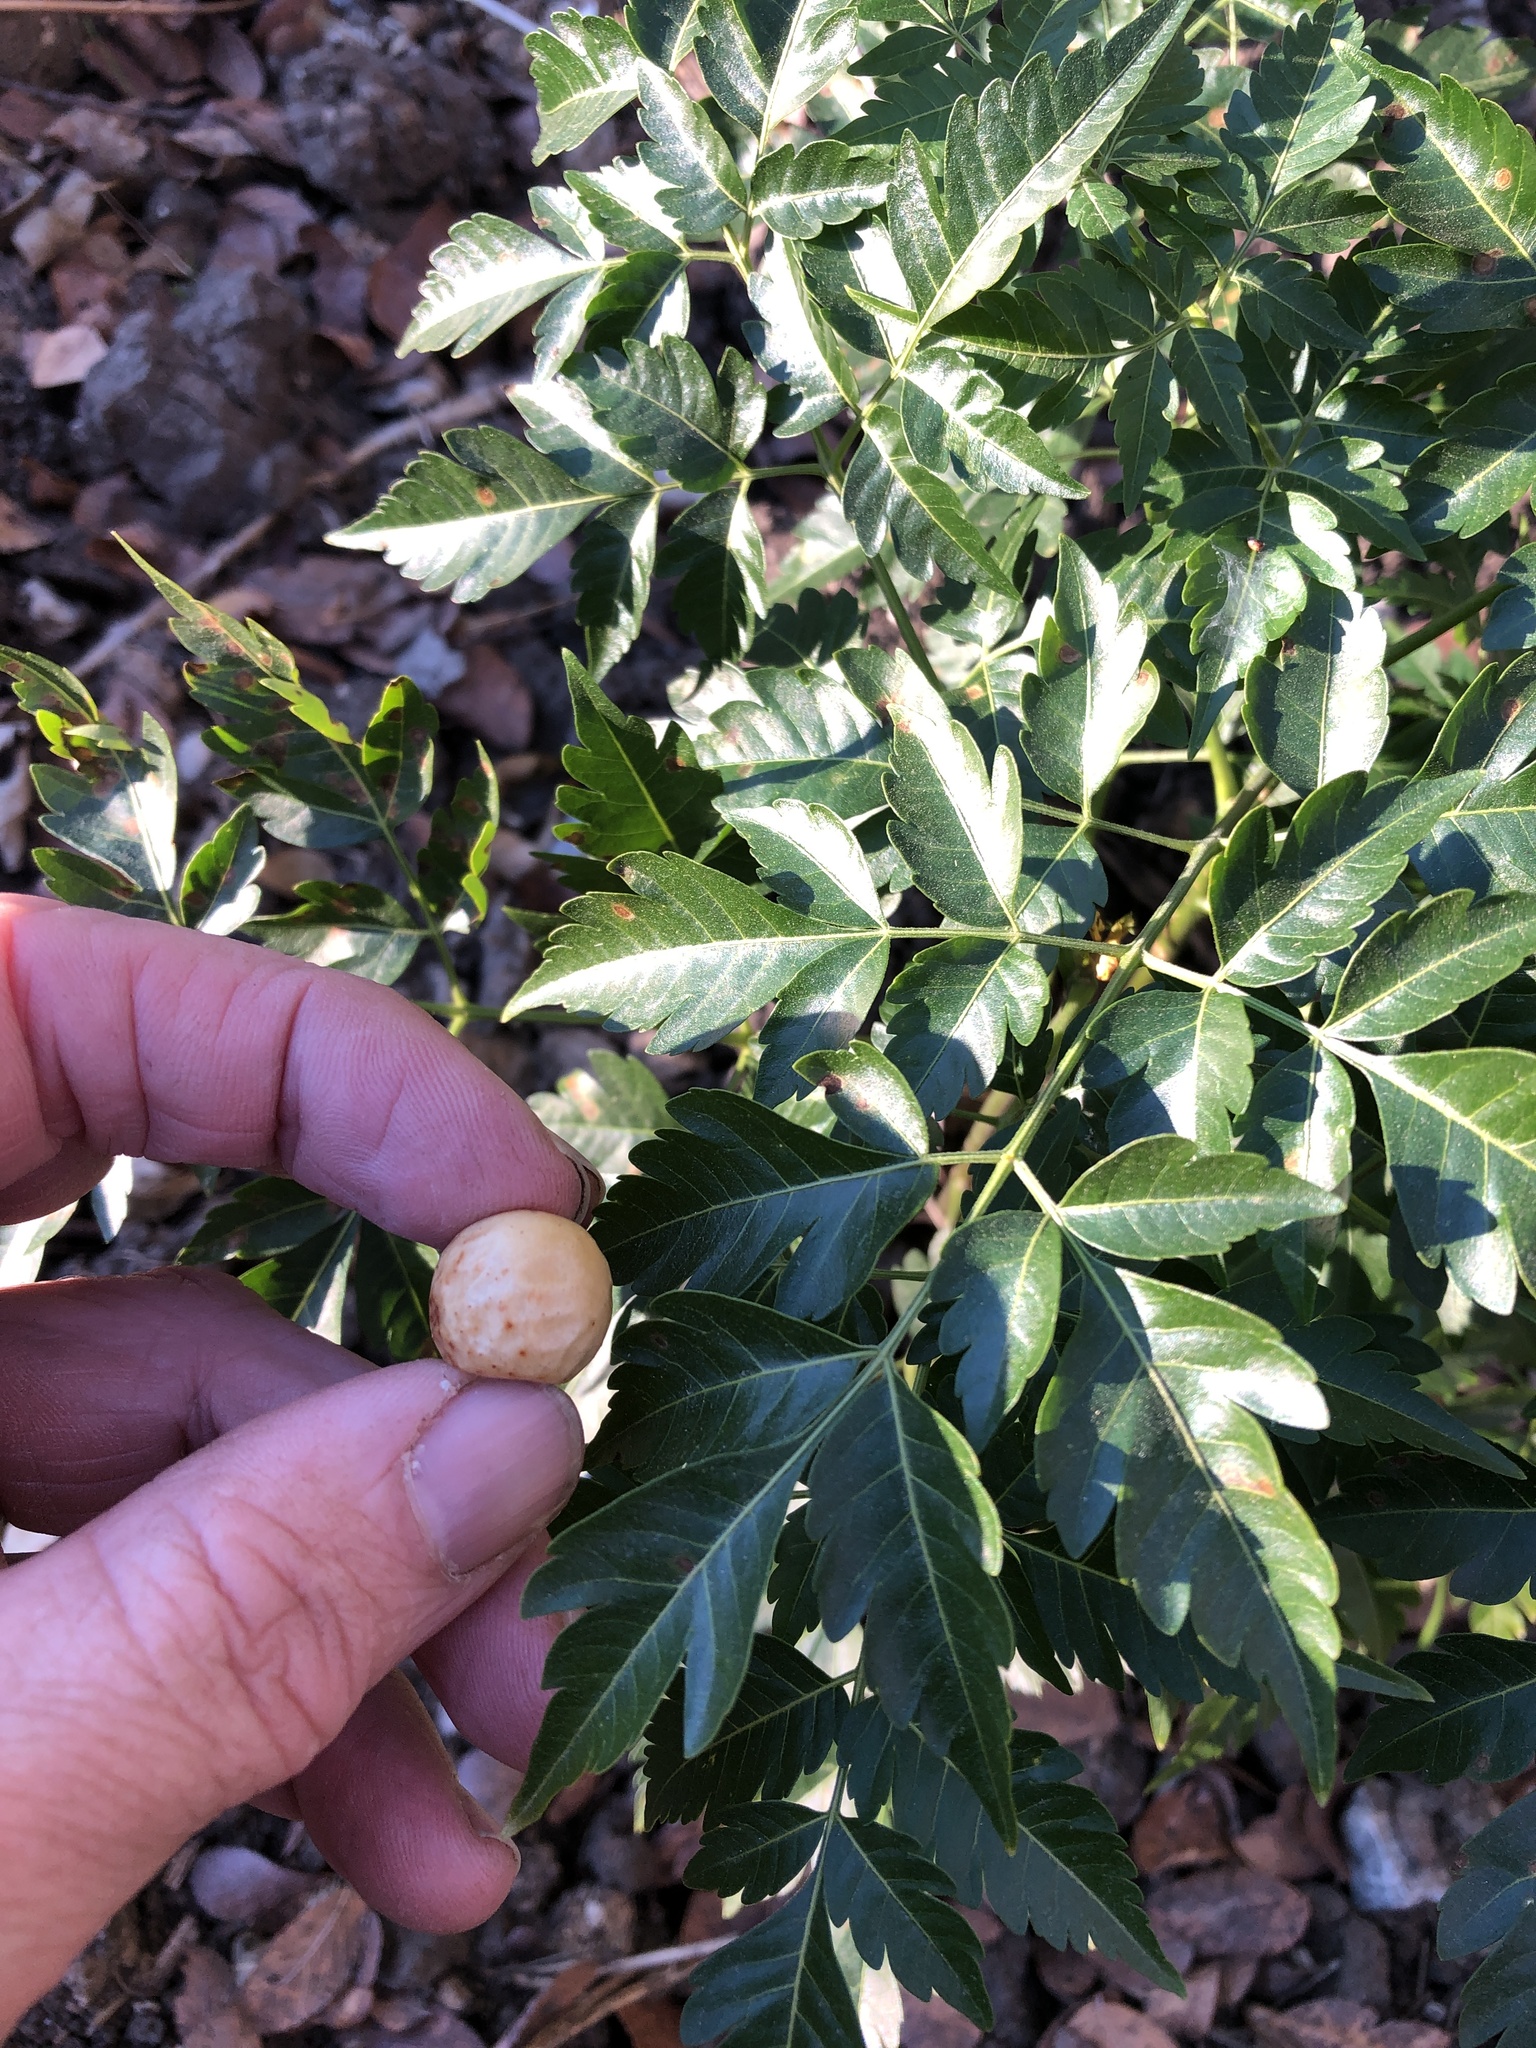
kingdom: Plantae
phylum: Tracheophyta
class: Magnoliopsida
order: Sapindales
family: Meliaceae
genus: Melia
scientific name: Melia azedarach
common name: Chinaberrytree
